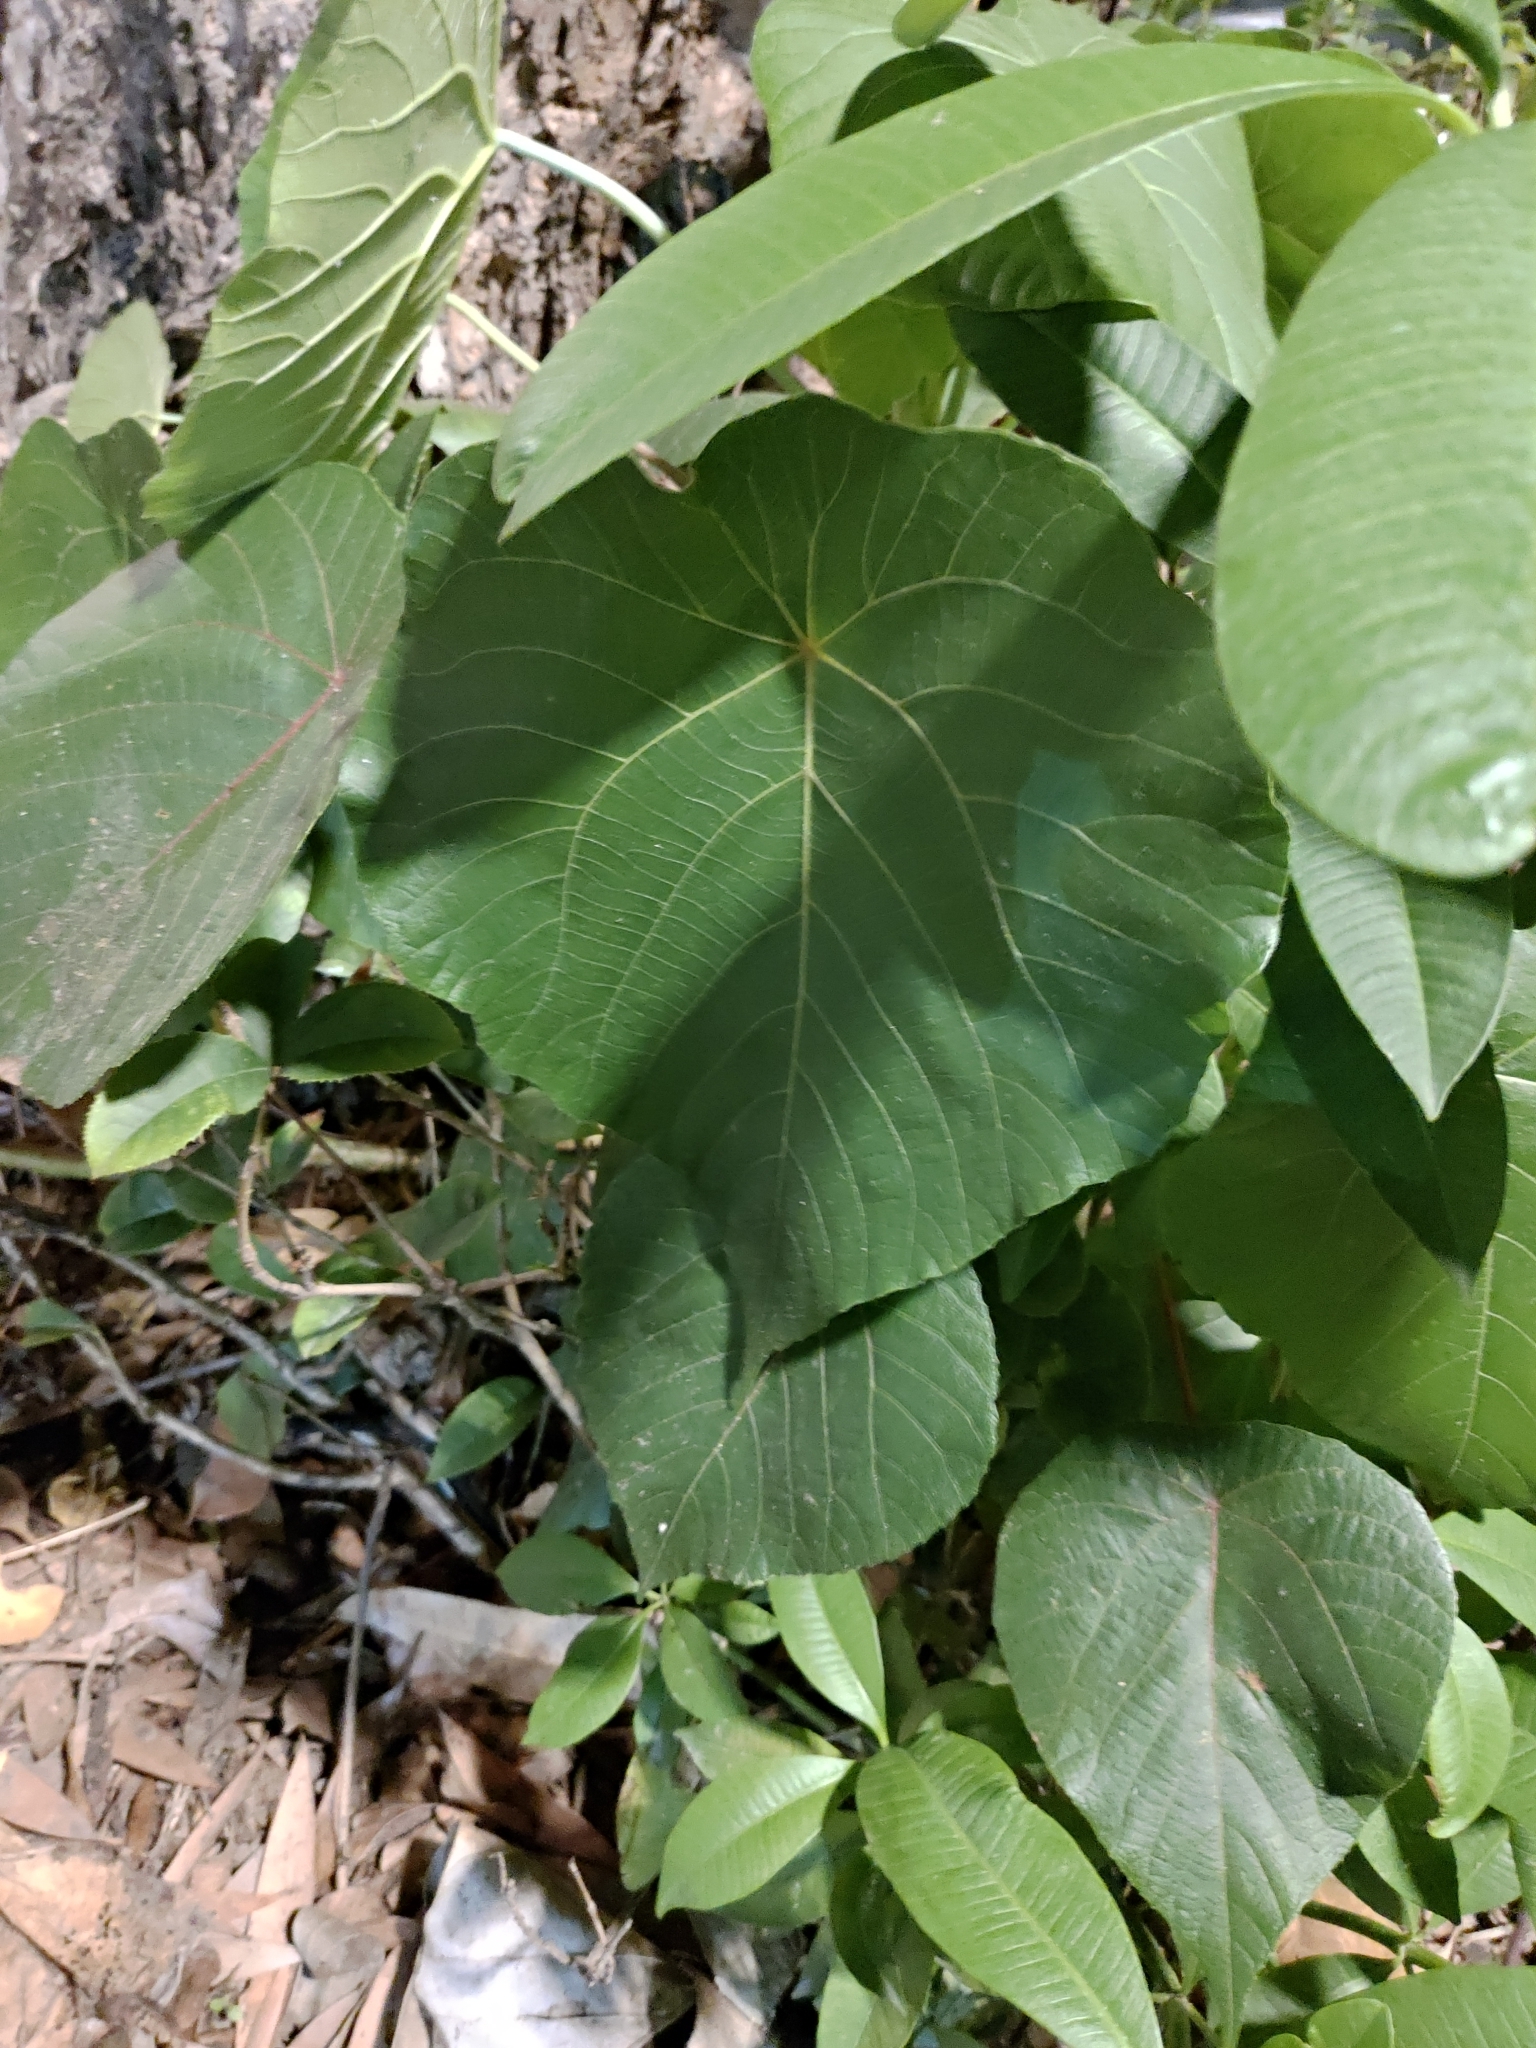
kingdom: Plantae
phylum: Tracheophyta
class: Magnoliopsida
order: Malpighiales
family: Euphorbiaceae
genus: Macaranga
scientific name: Macaranga tanarius
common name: Parasol leaf tree
